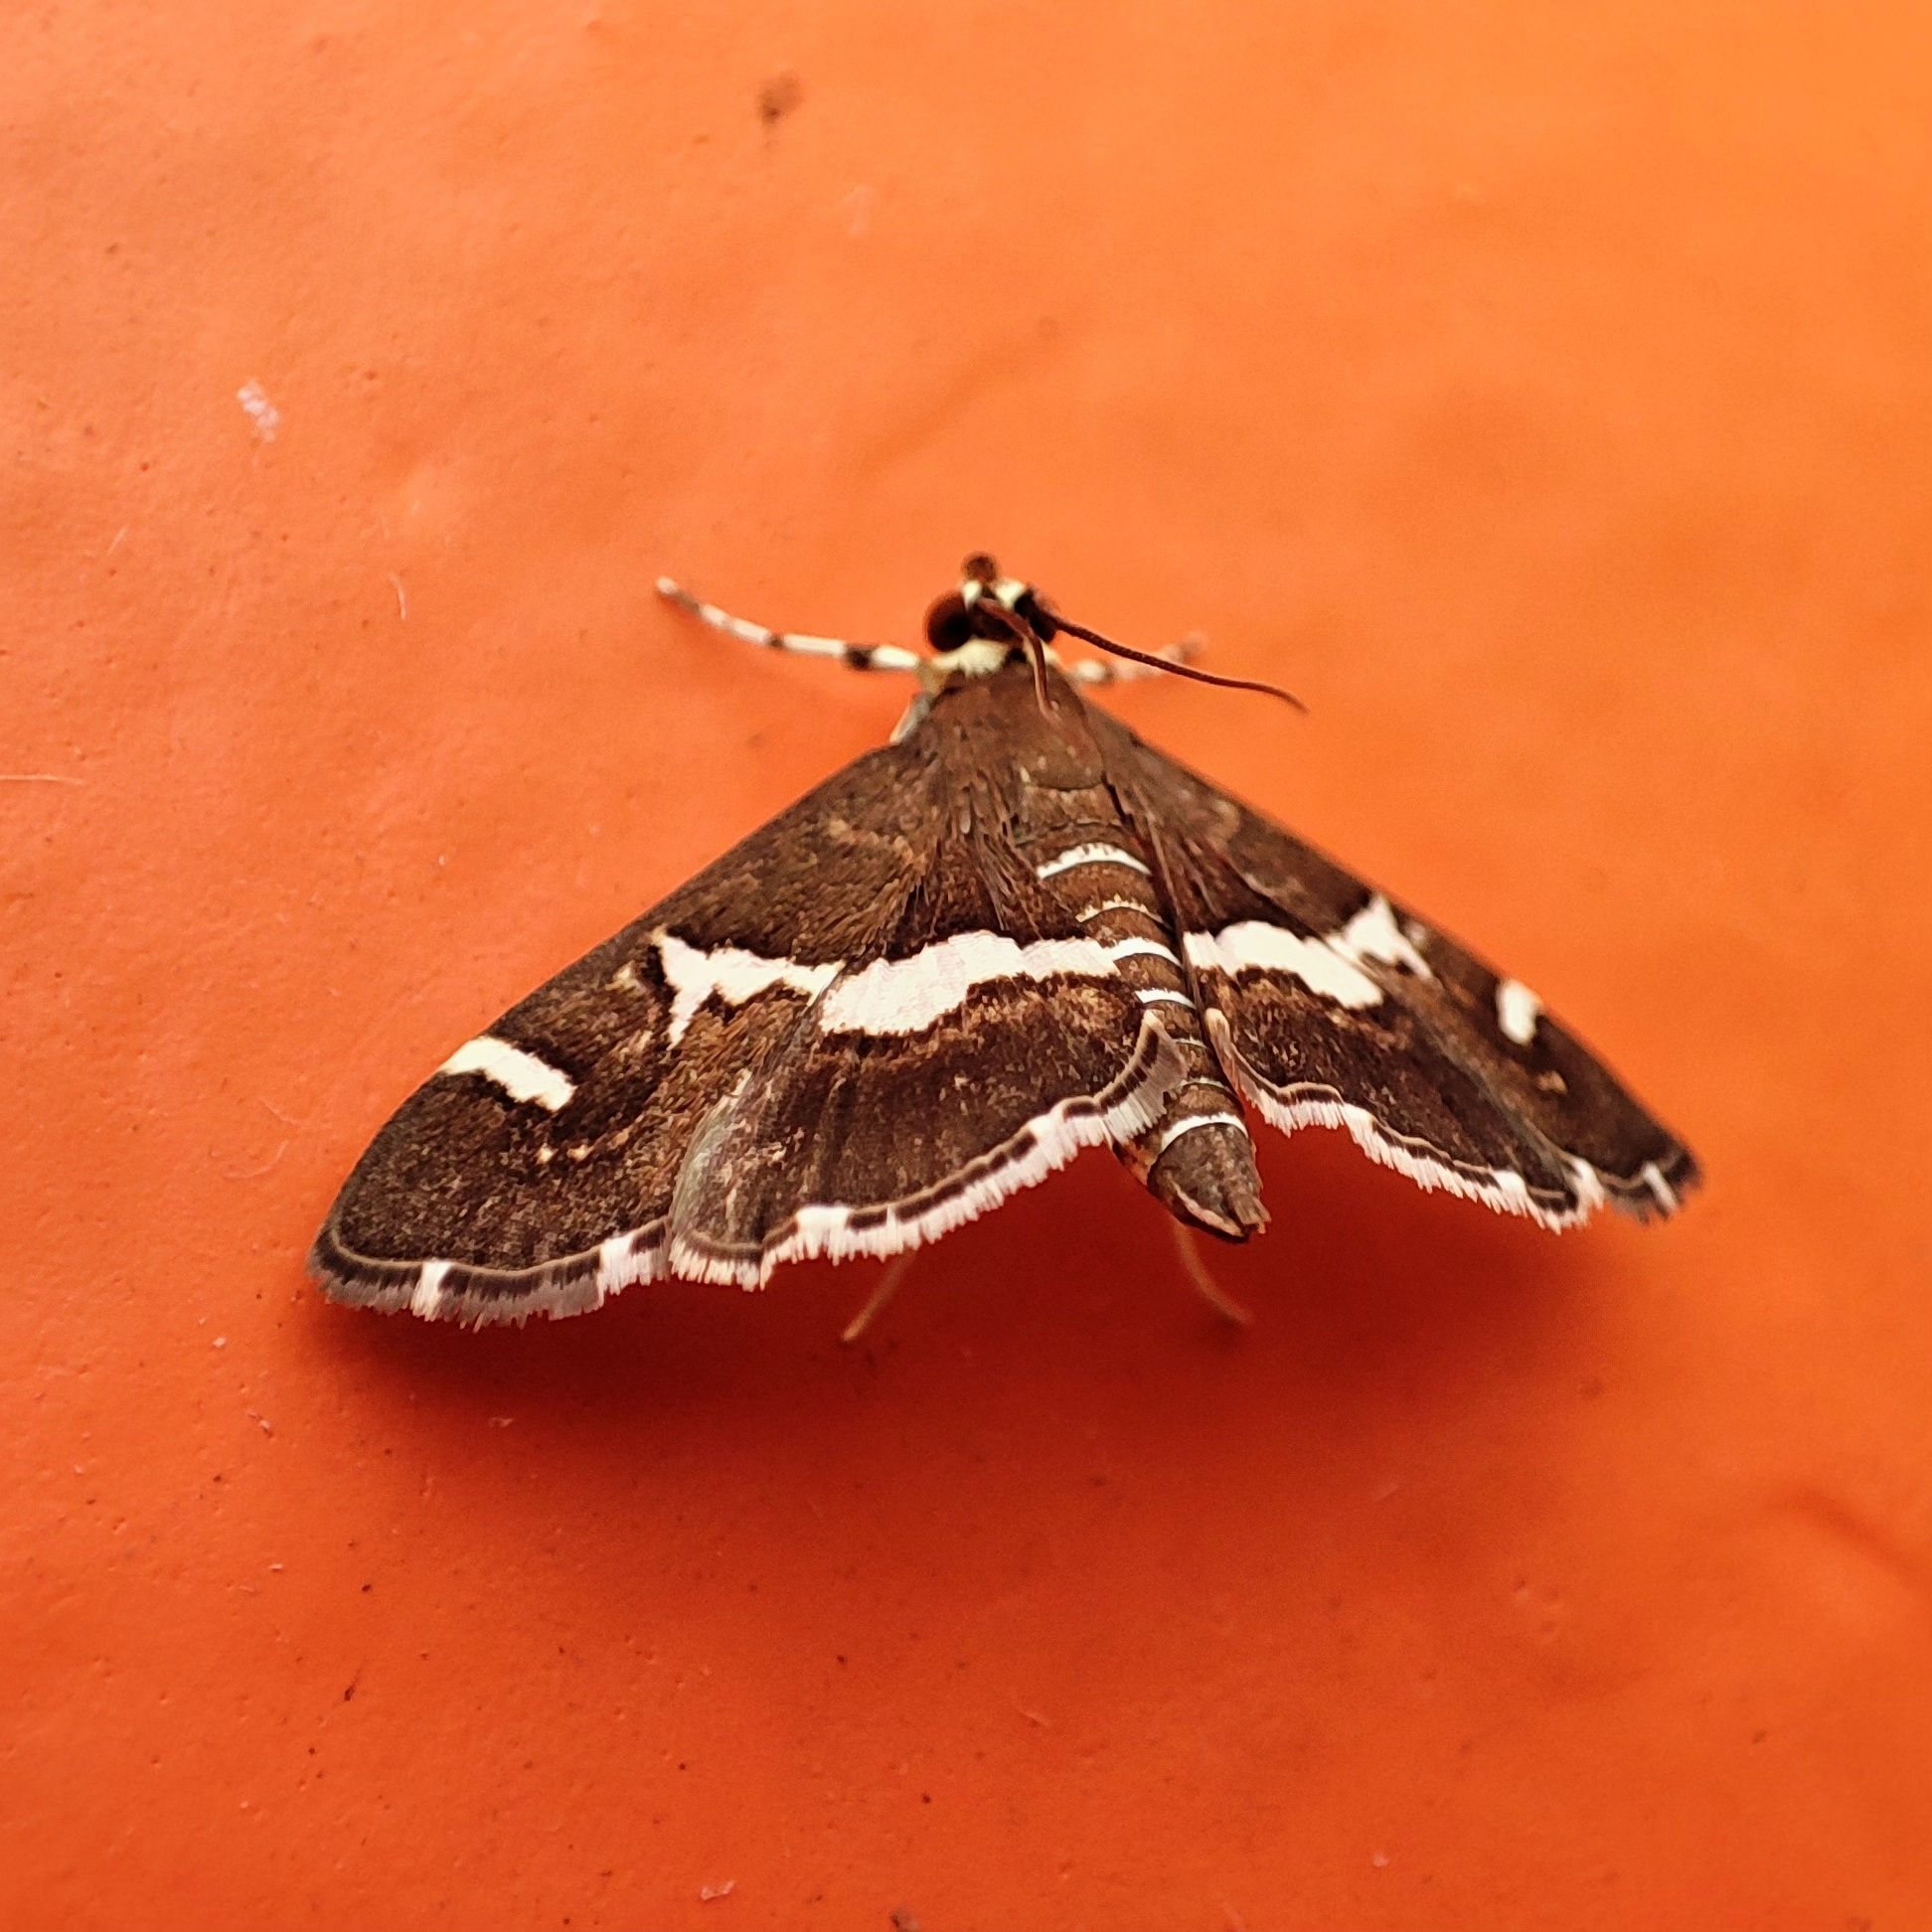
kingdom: Animalia
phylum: Arthropoda
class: Insecta
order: Lepidoptera
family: Crambidae
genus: Spoladea
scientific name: Spoladea recurvalis
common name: Beet webworm moth
